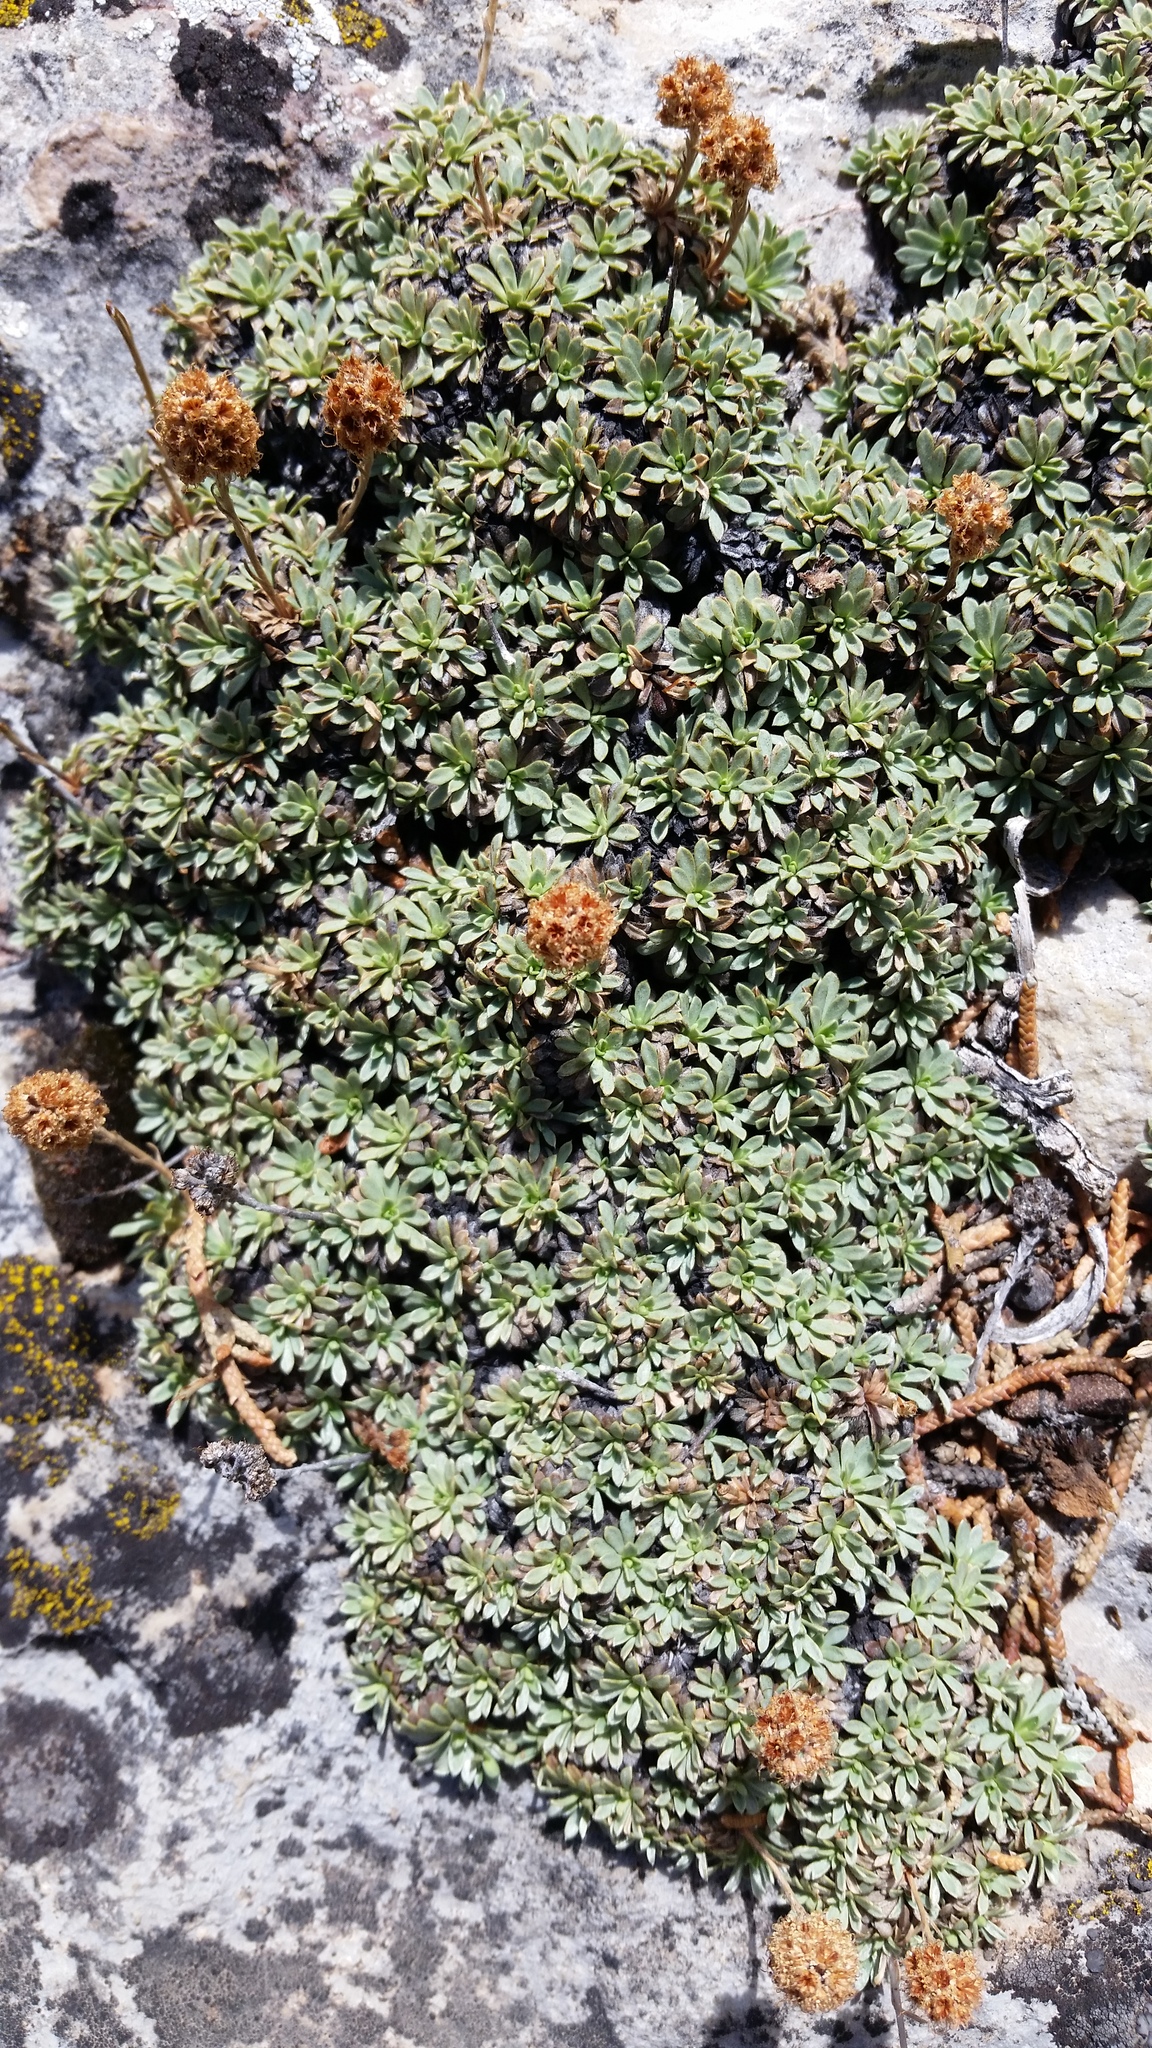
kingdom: Plantae
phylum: Tracheophyta
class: Magnoliopsida
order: Rosales
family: Rosaceae
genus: Petrophytum
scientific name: Petrophytum caespitosum
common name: Mat rockspirea
